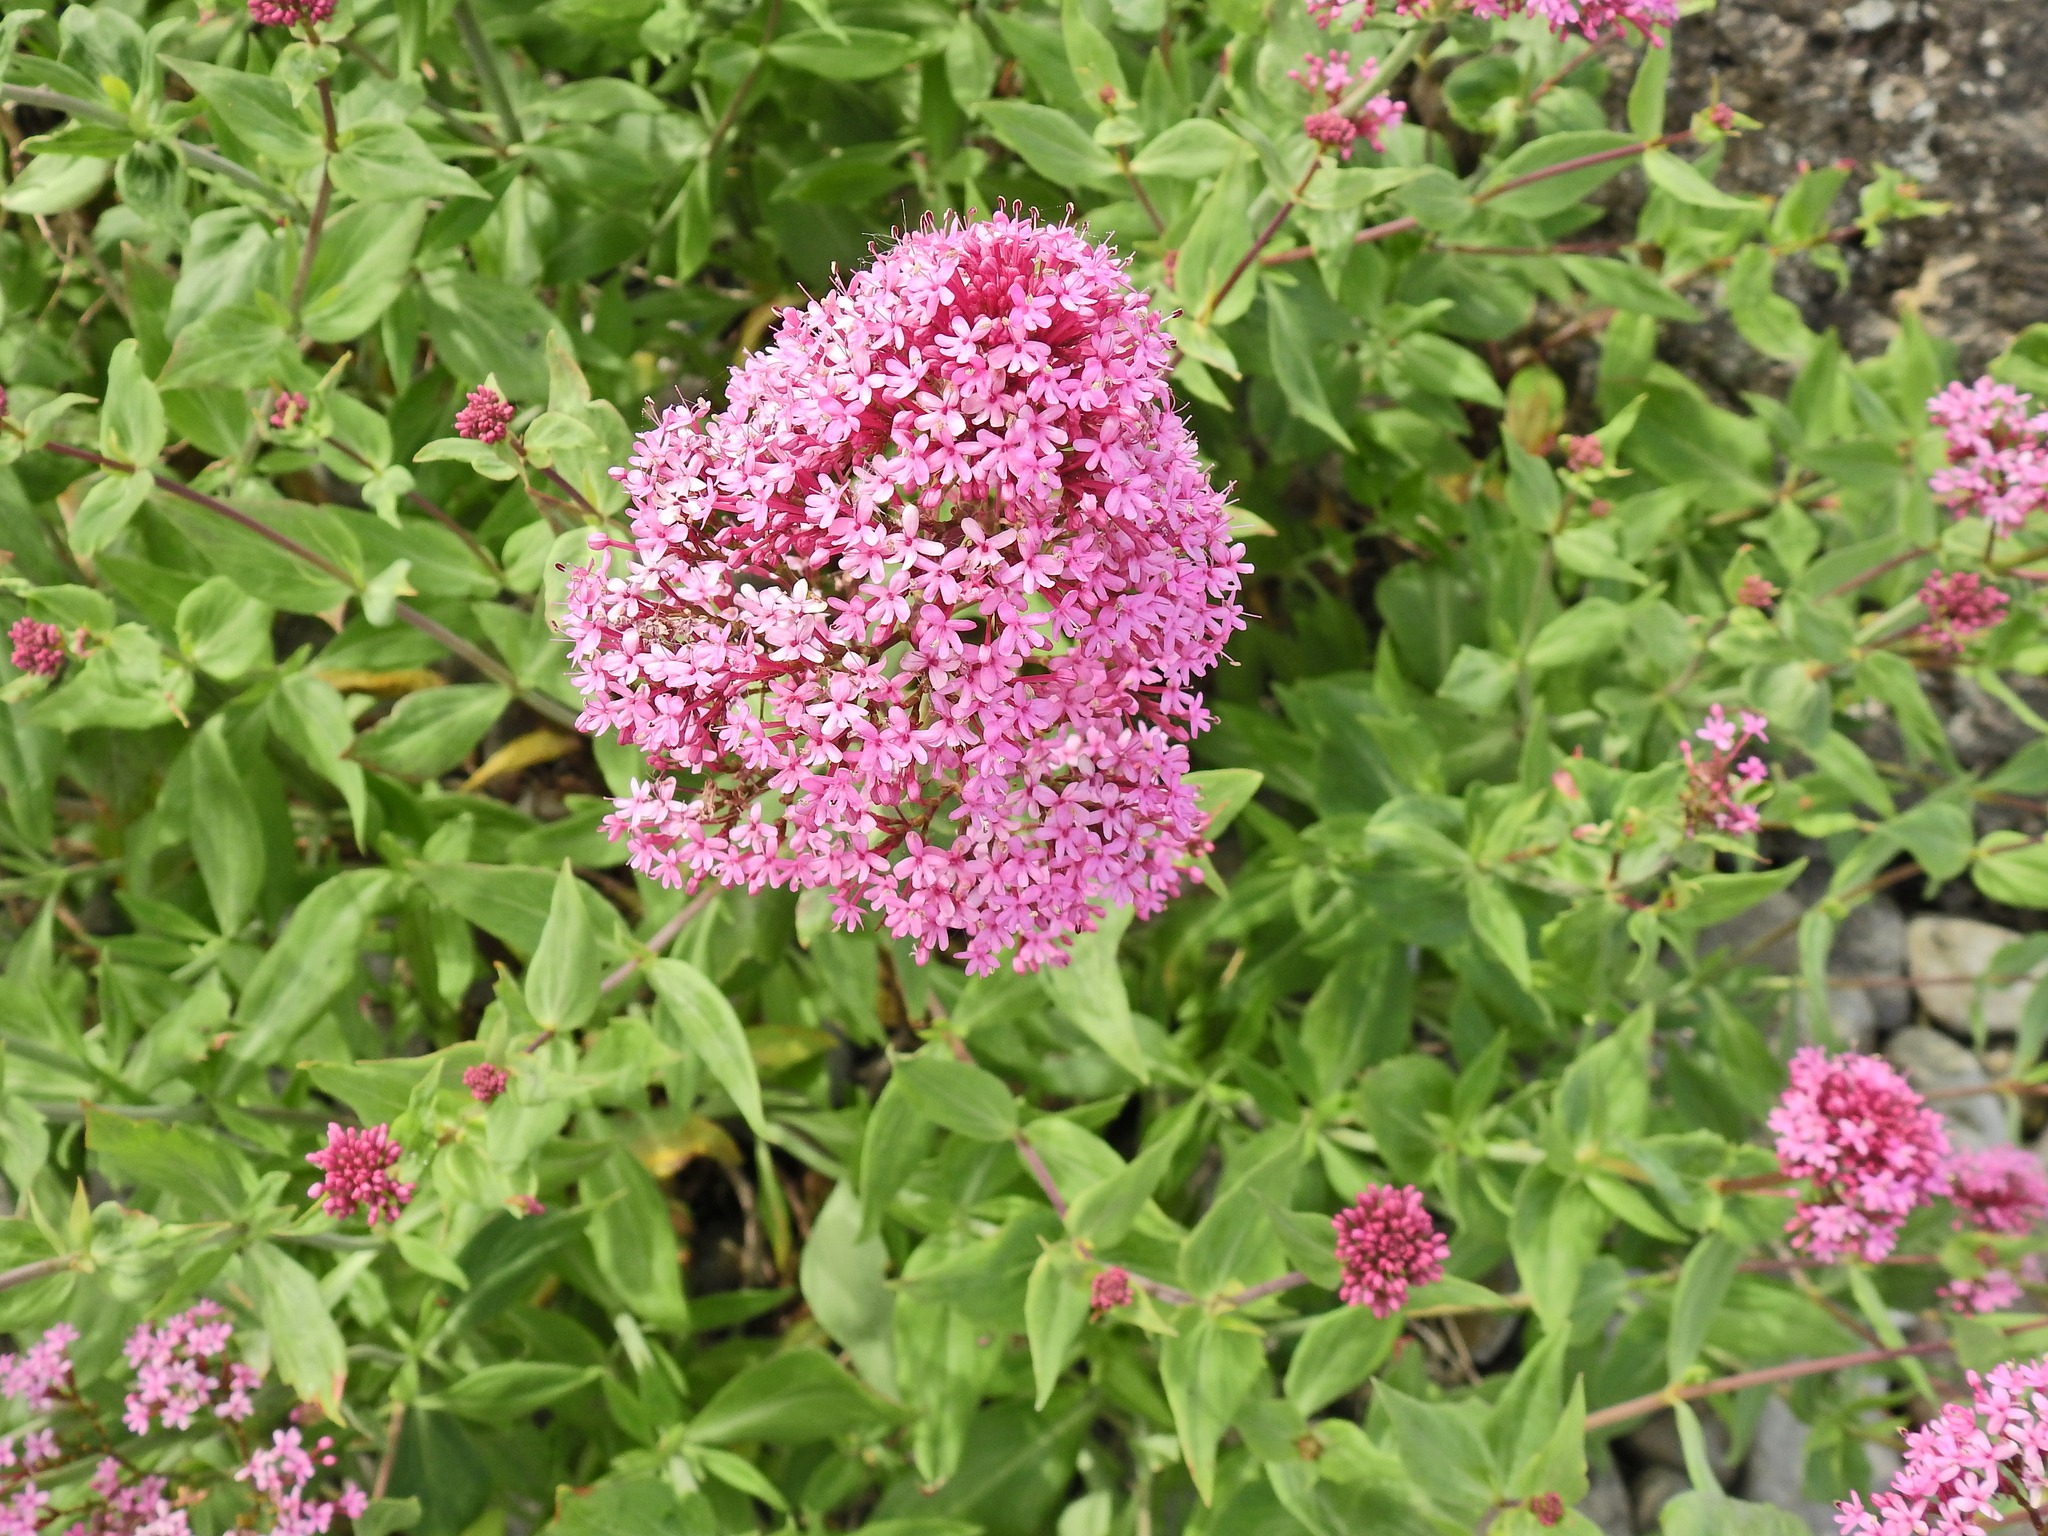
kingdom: Plantae
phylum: Tracheophyta
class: Magnoliopsida
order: Dipsacales
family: Caprifoliaceae
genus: Centranthus
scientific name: Centranthus ruber
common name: Red valerian
